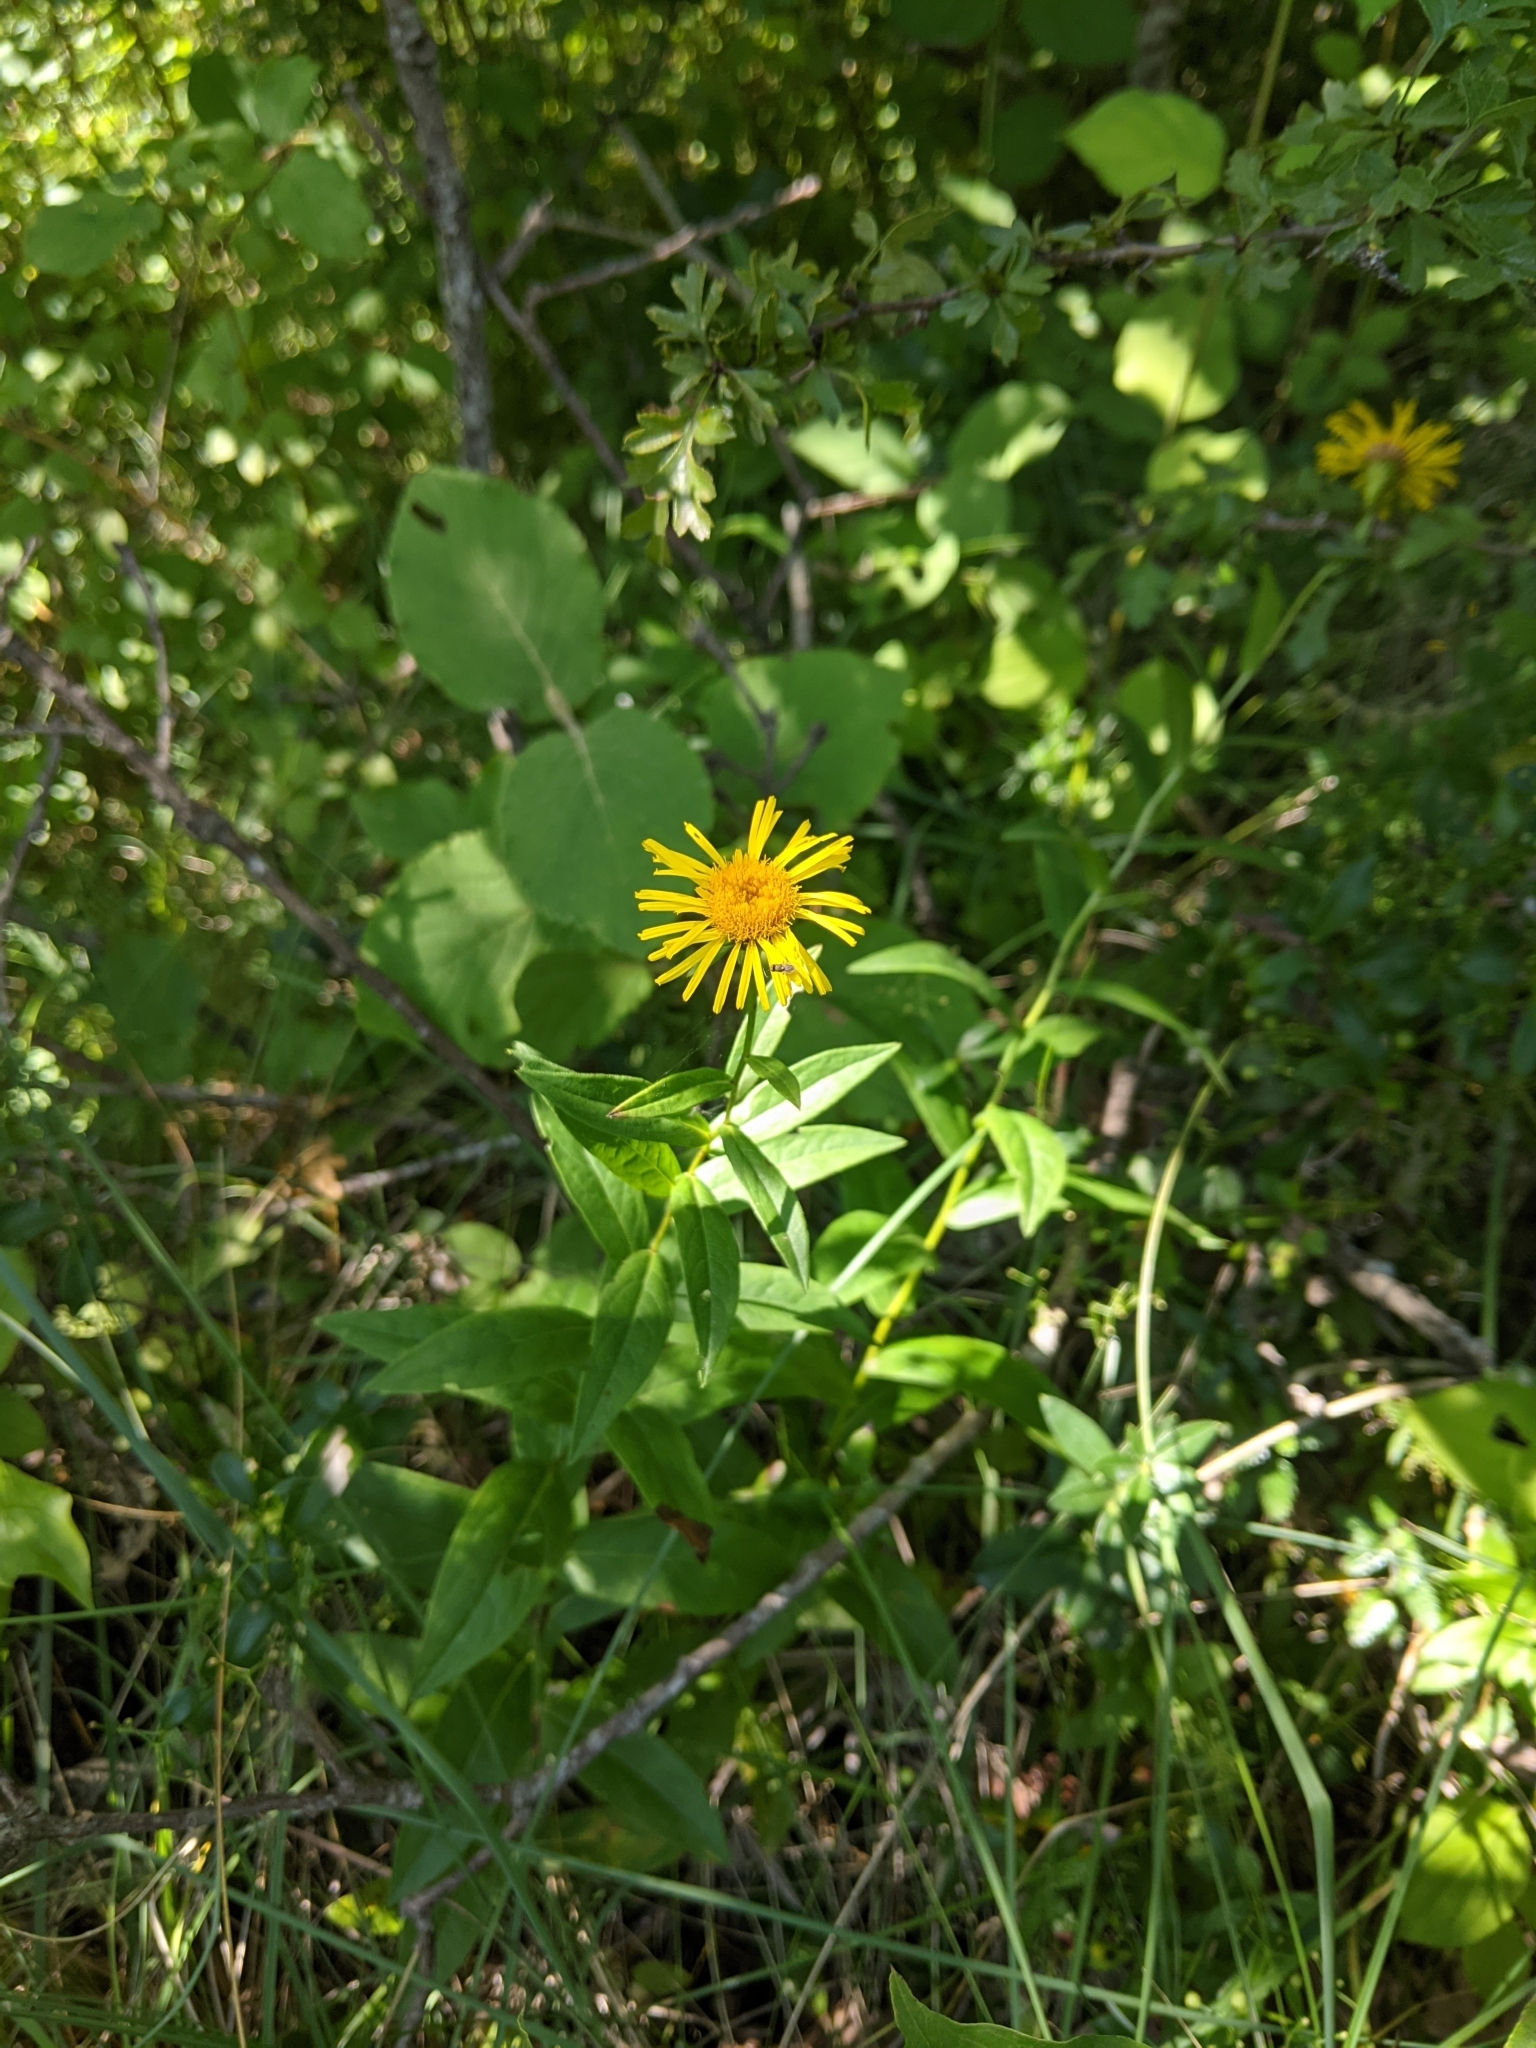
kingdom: Plantae
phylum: Tracheophyta
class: Magnoliopsida
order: Asterales
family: Asteraceae
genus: Pentanema
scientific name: Pentanema salicinum
